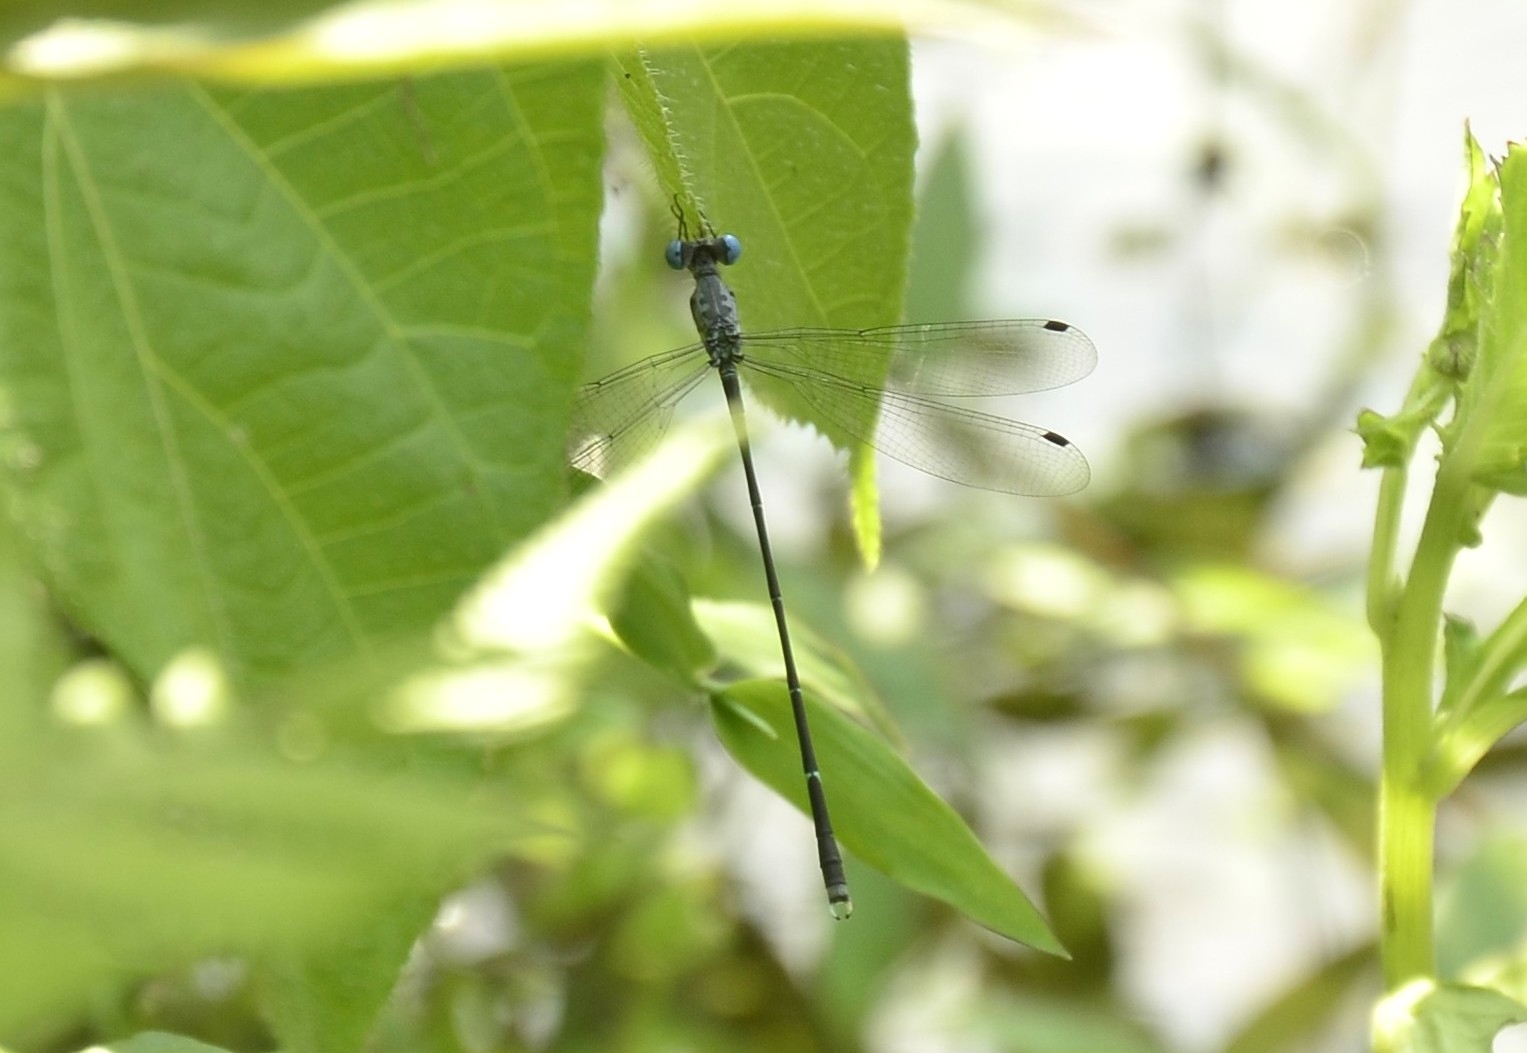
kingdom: Animalia
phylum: Arthropoda
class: Insecta
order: Odonata
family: Lestidae
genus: Lestes
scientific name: Lestes praemorsus
